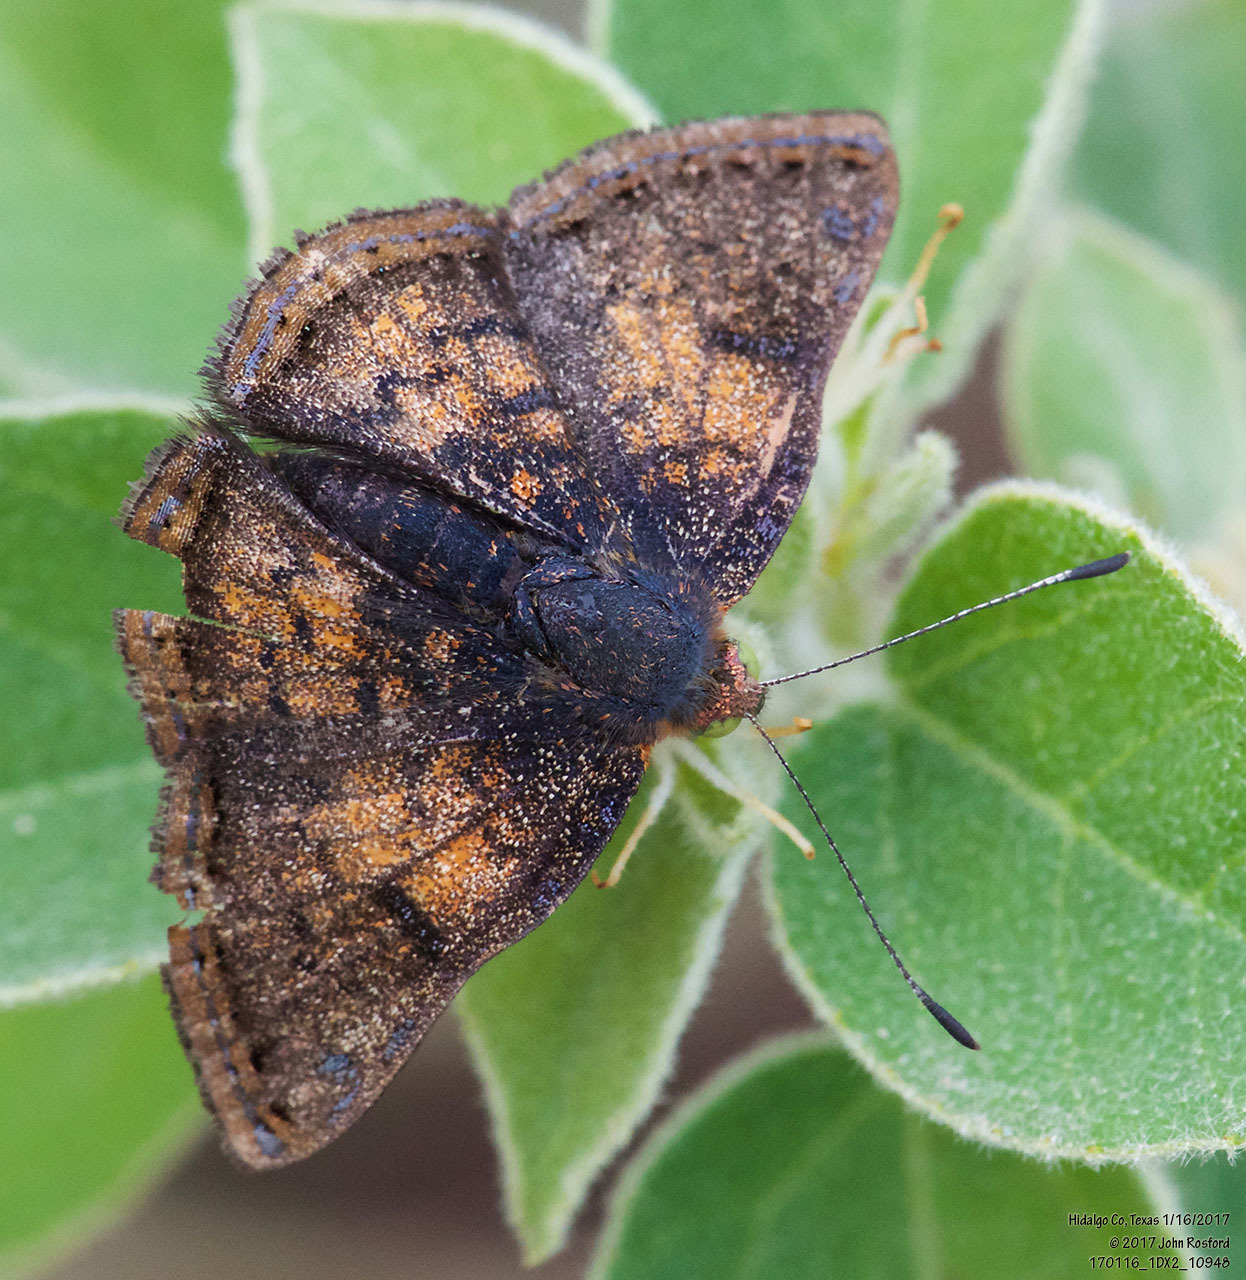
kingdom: Animalia
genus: Caria
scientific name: Caria ino
